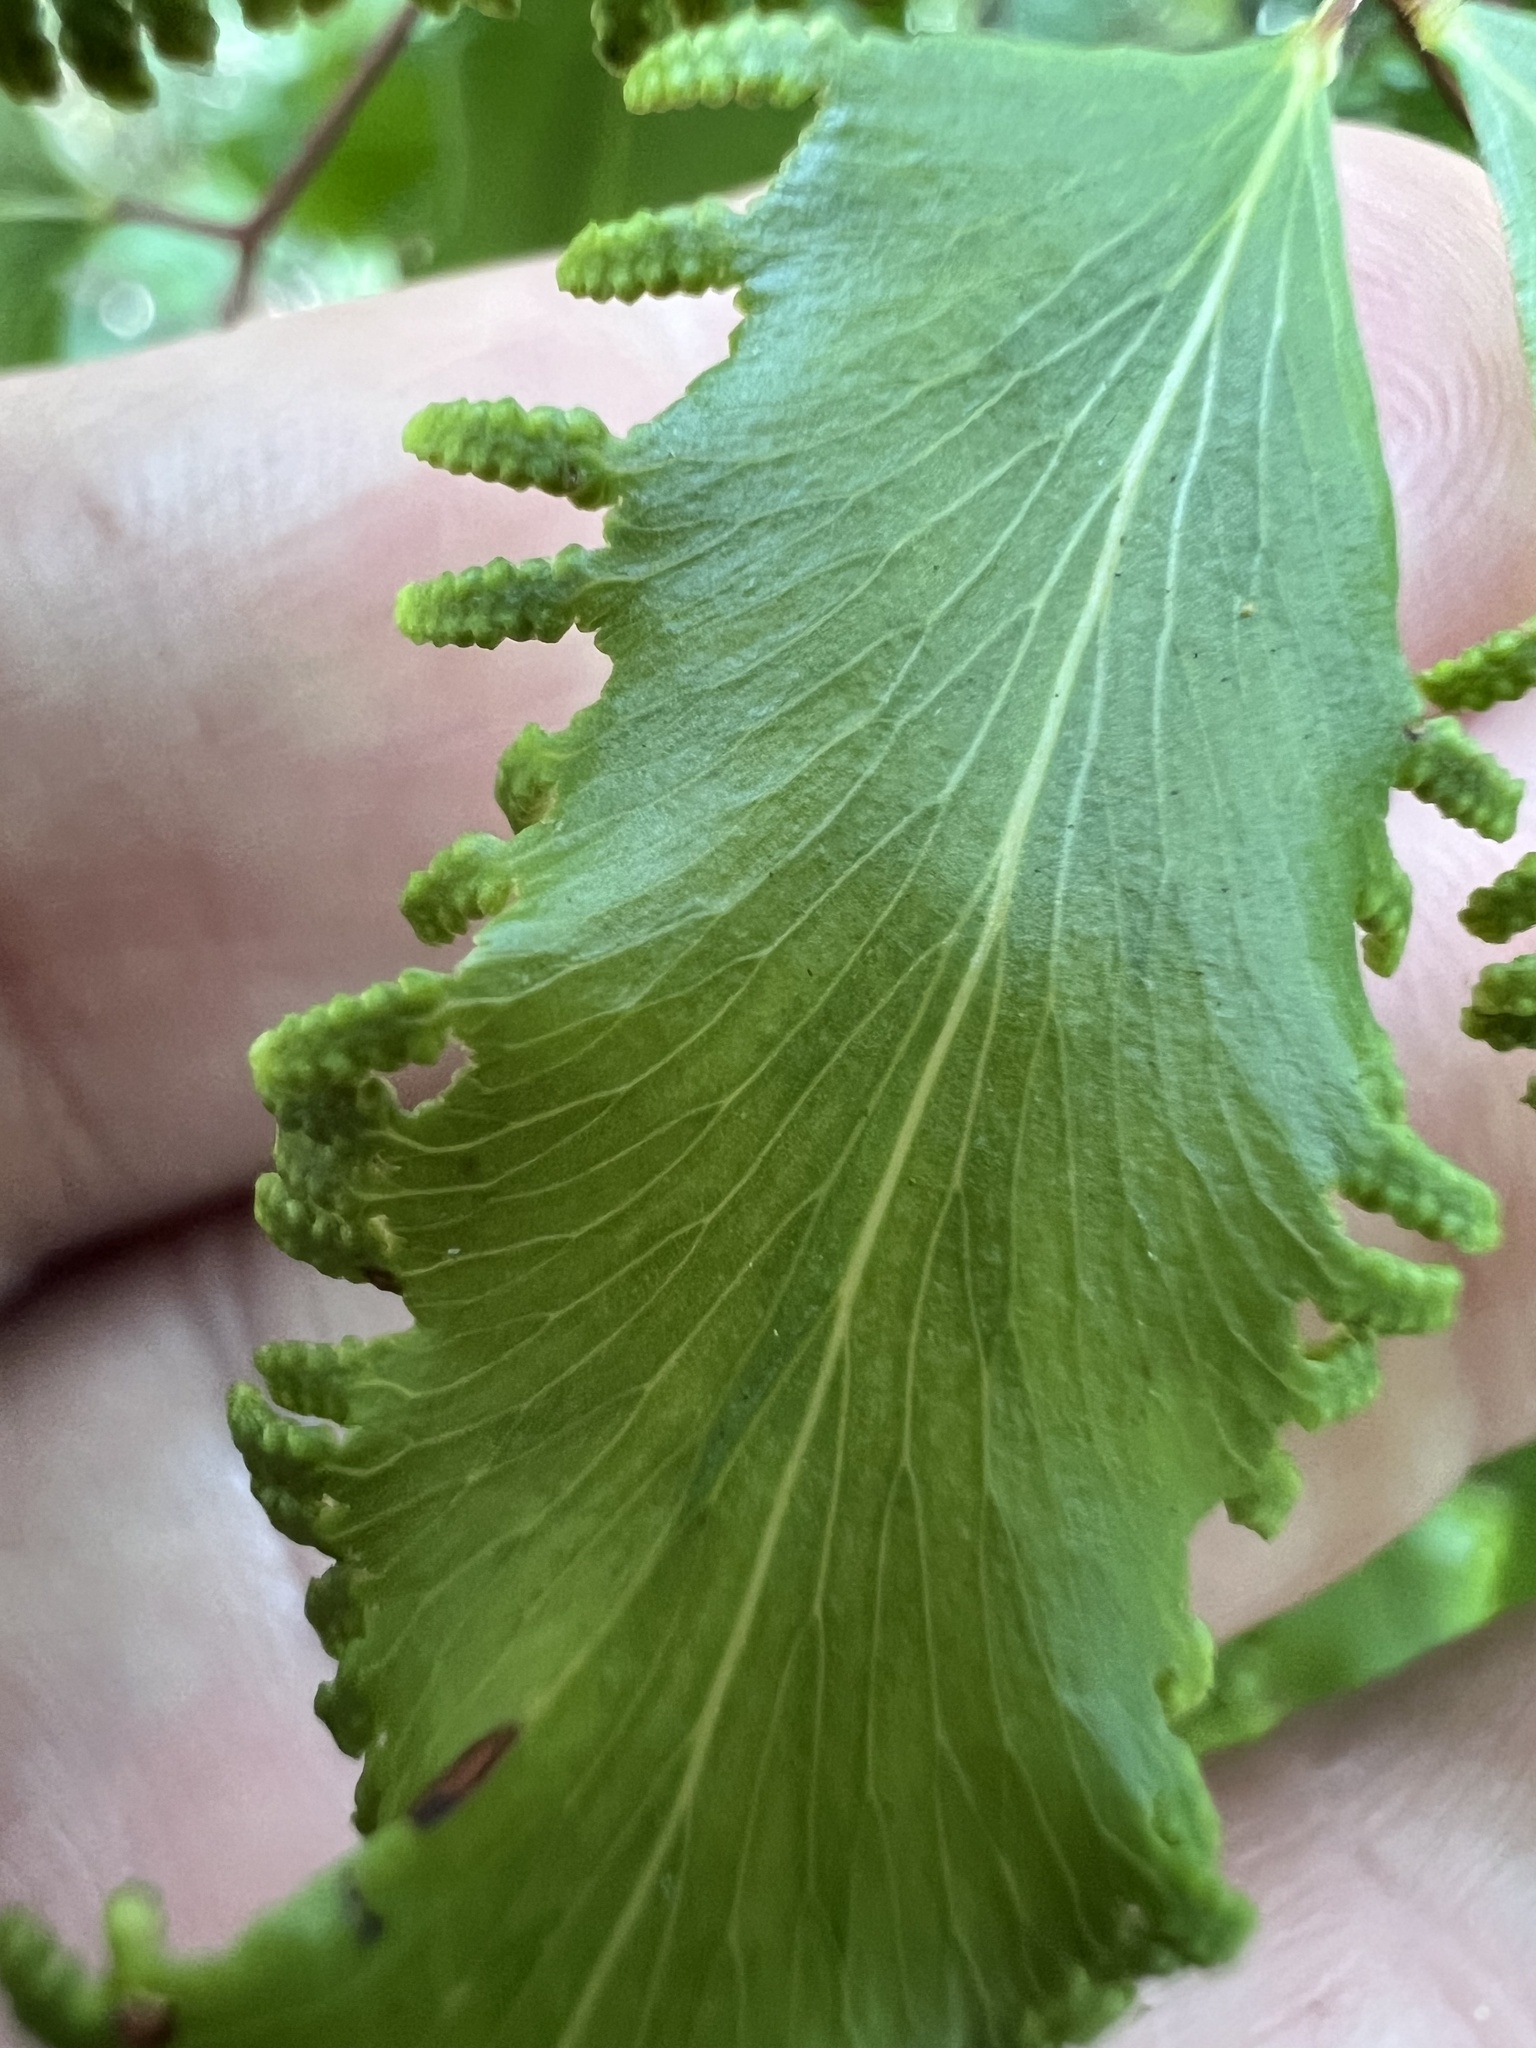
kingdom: Plantae
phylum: Tracheophyta
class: Polypodiopsida
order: Schizaeales
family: Lygodiaceae
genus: Lygodium
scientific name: Lygodium reticulatum
